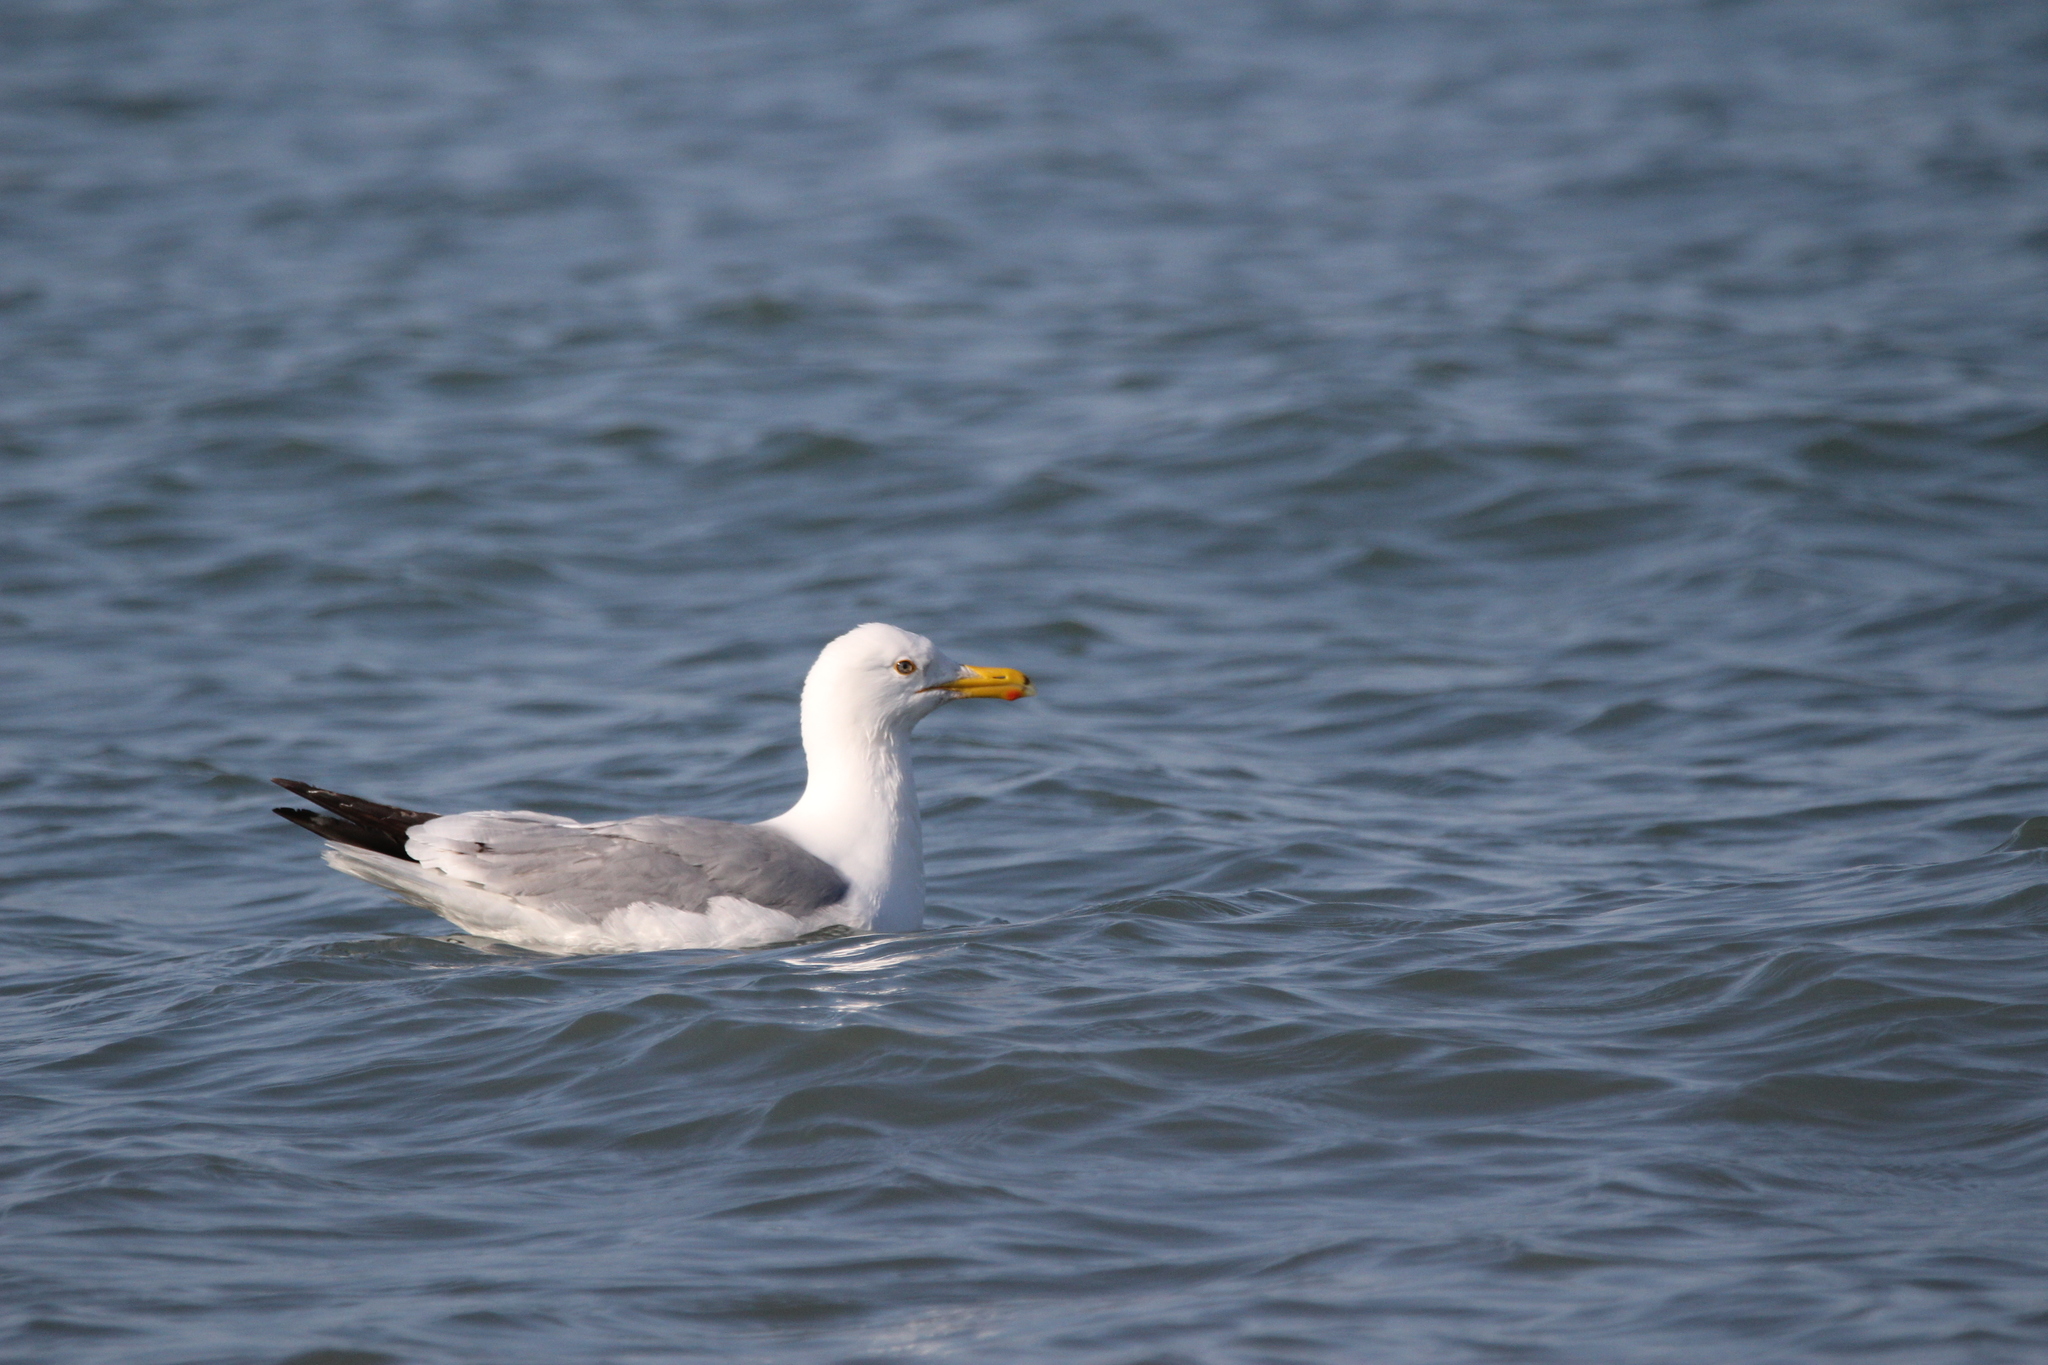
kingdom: Animalia
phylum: Chordata
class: Aves
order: Charadriiformes
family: Laridae
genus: Larus
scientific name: Larus argentatus
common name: Herring gull
